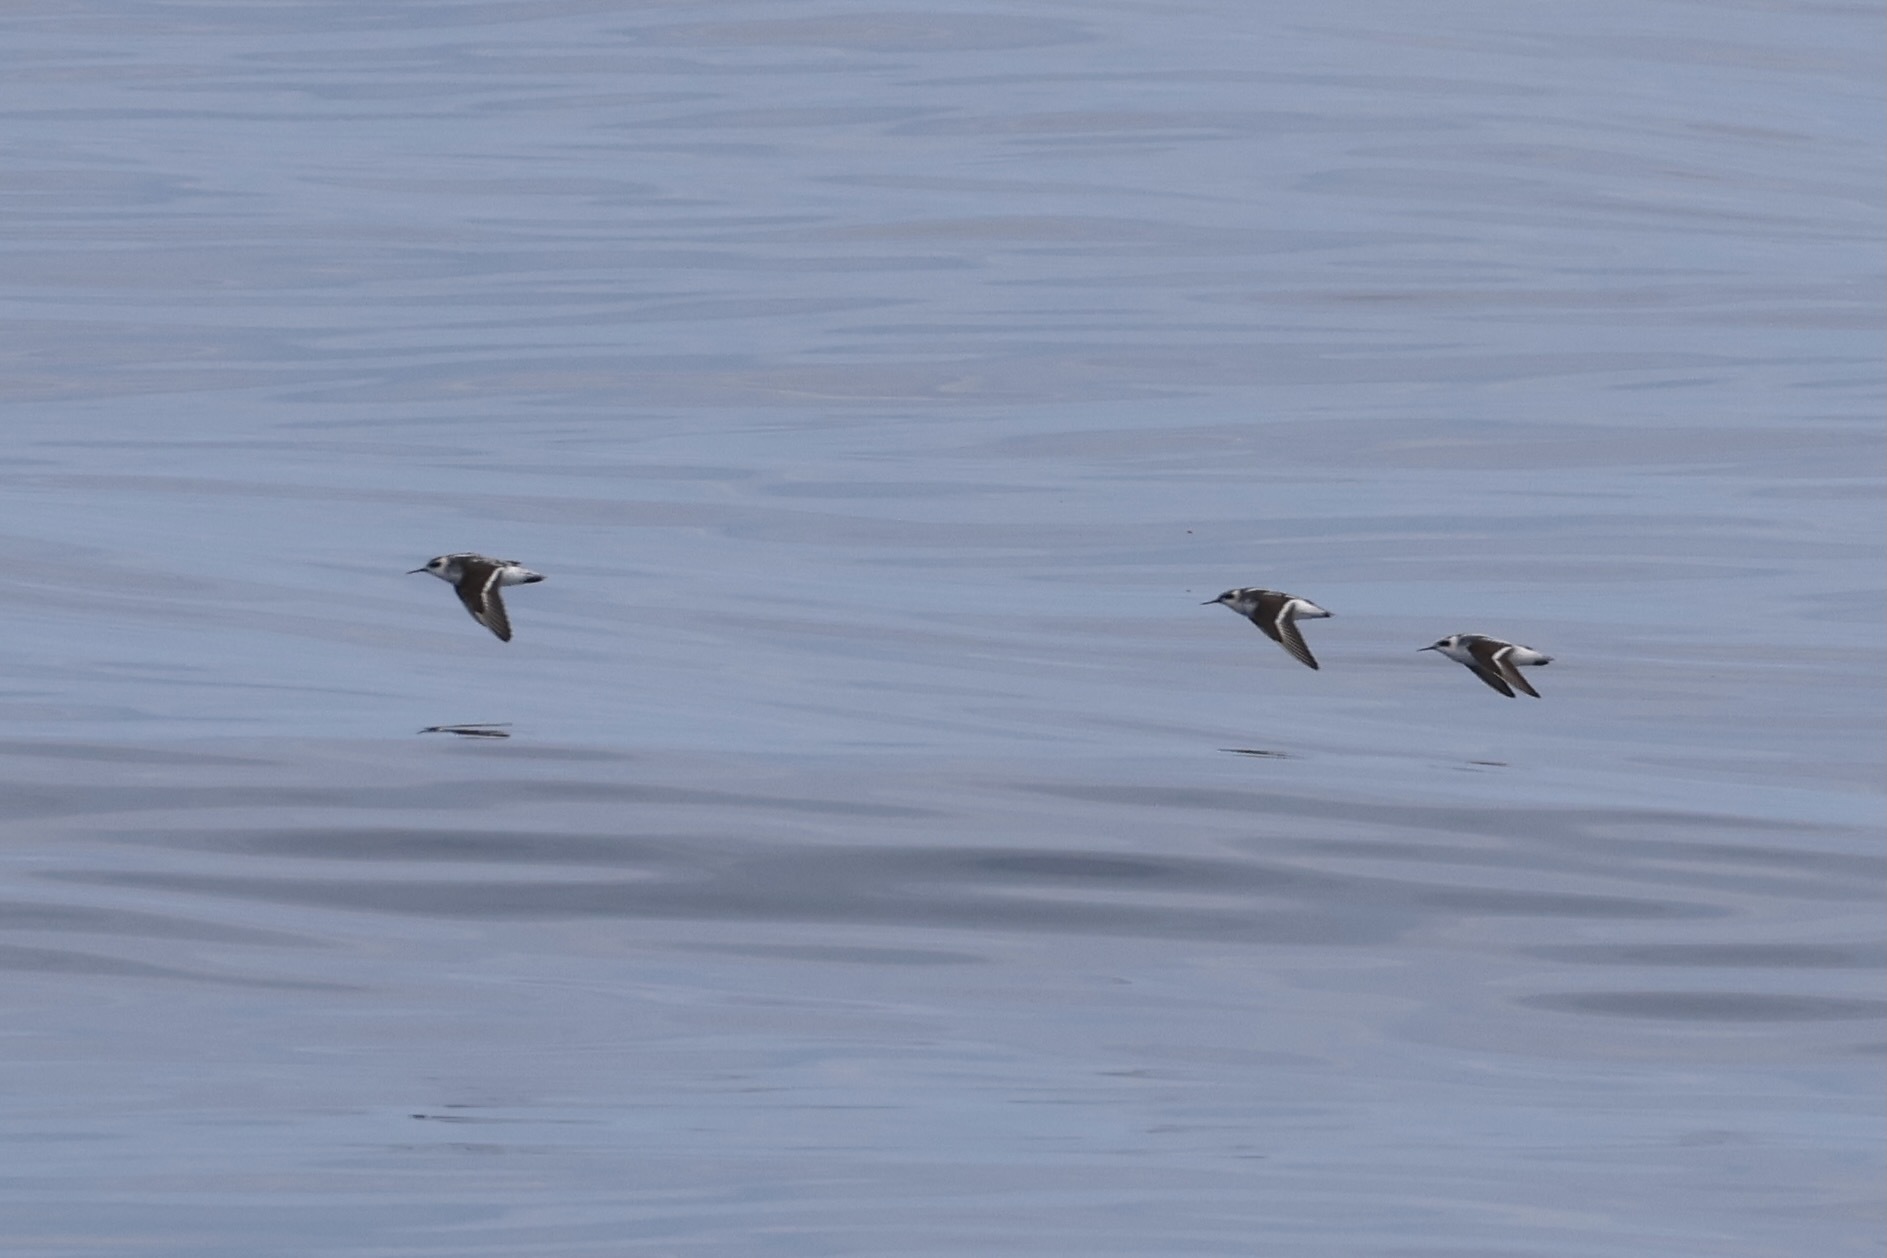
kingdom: Animalia
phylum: Chordata
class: Aves
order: Charadriiformes
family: Scolopacidae
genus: Phalaropus
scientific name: Phalaropus lobatus
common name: Red-necked phalarope
